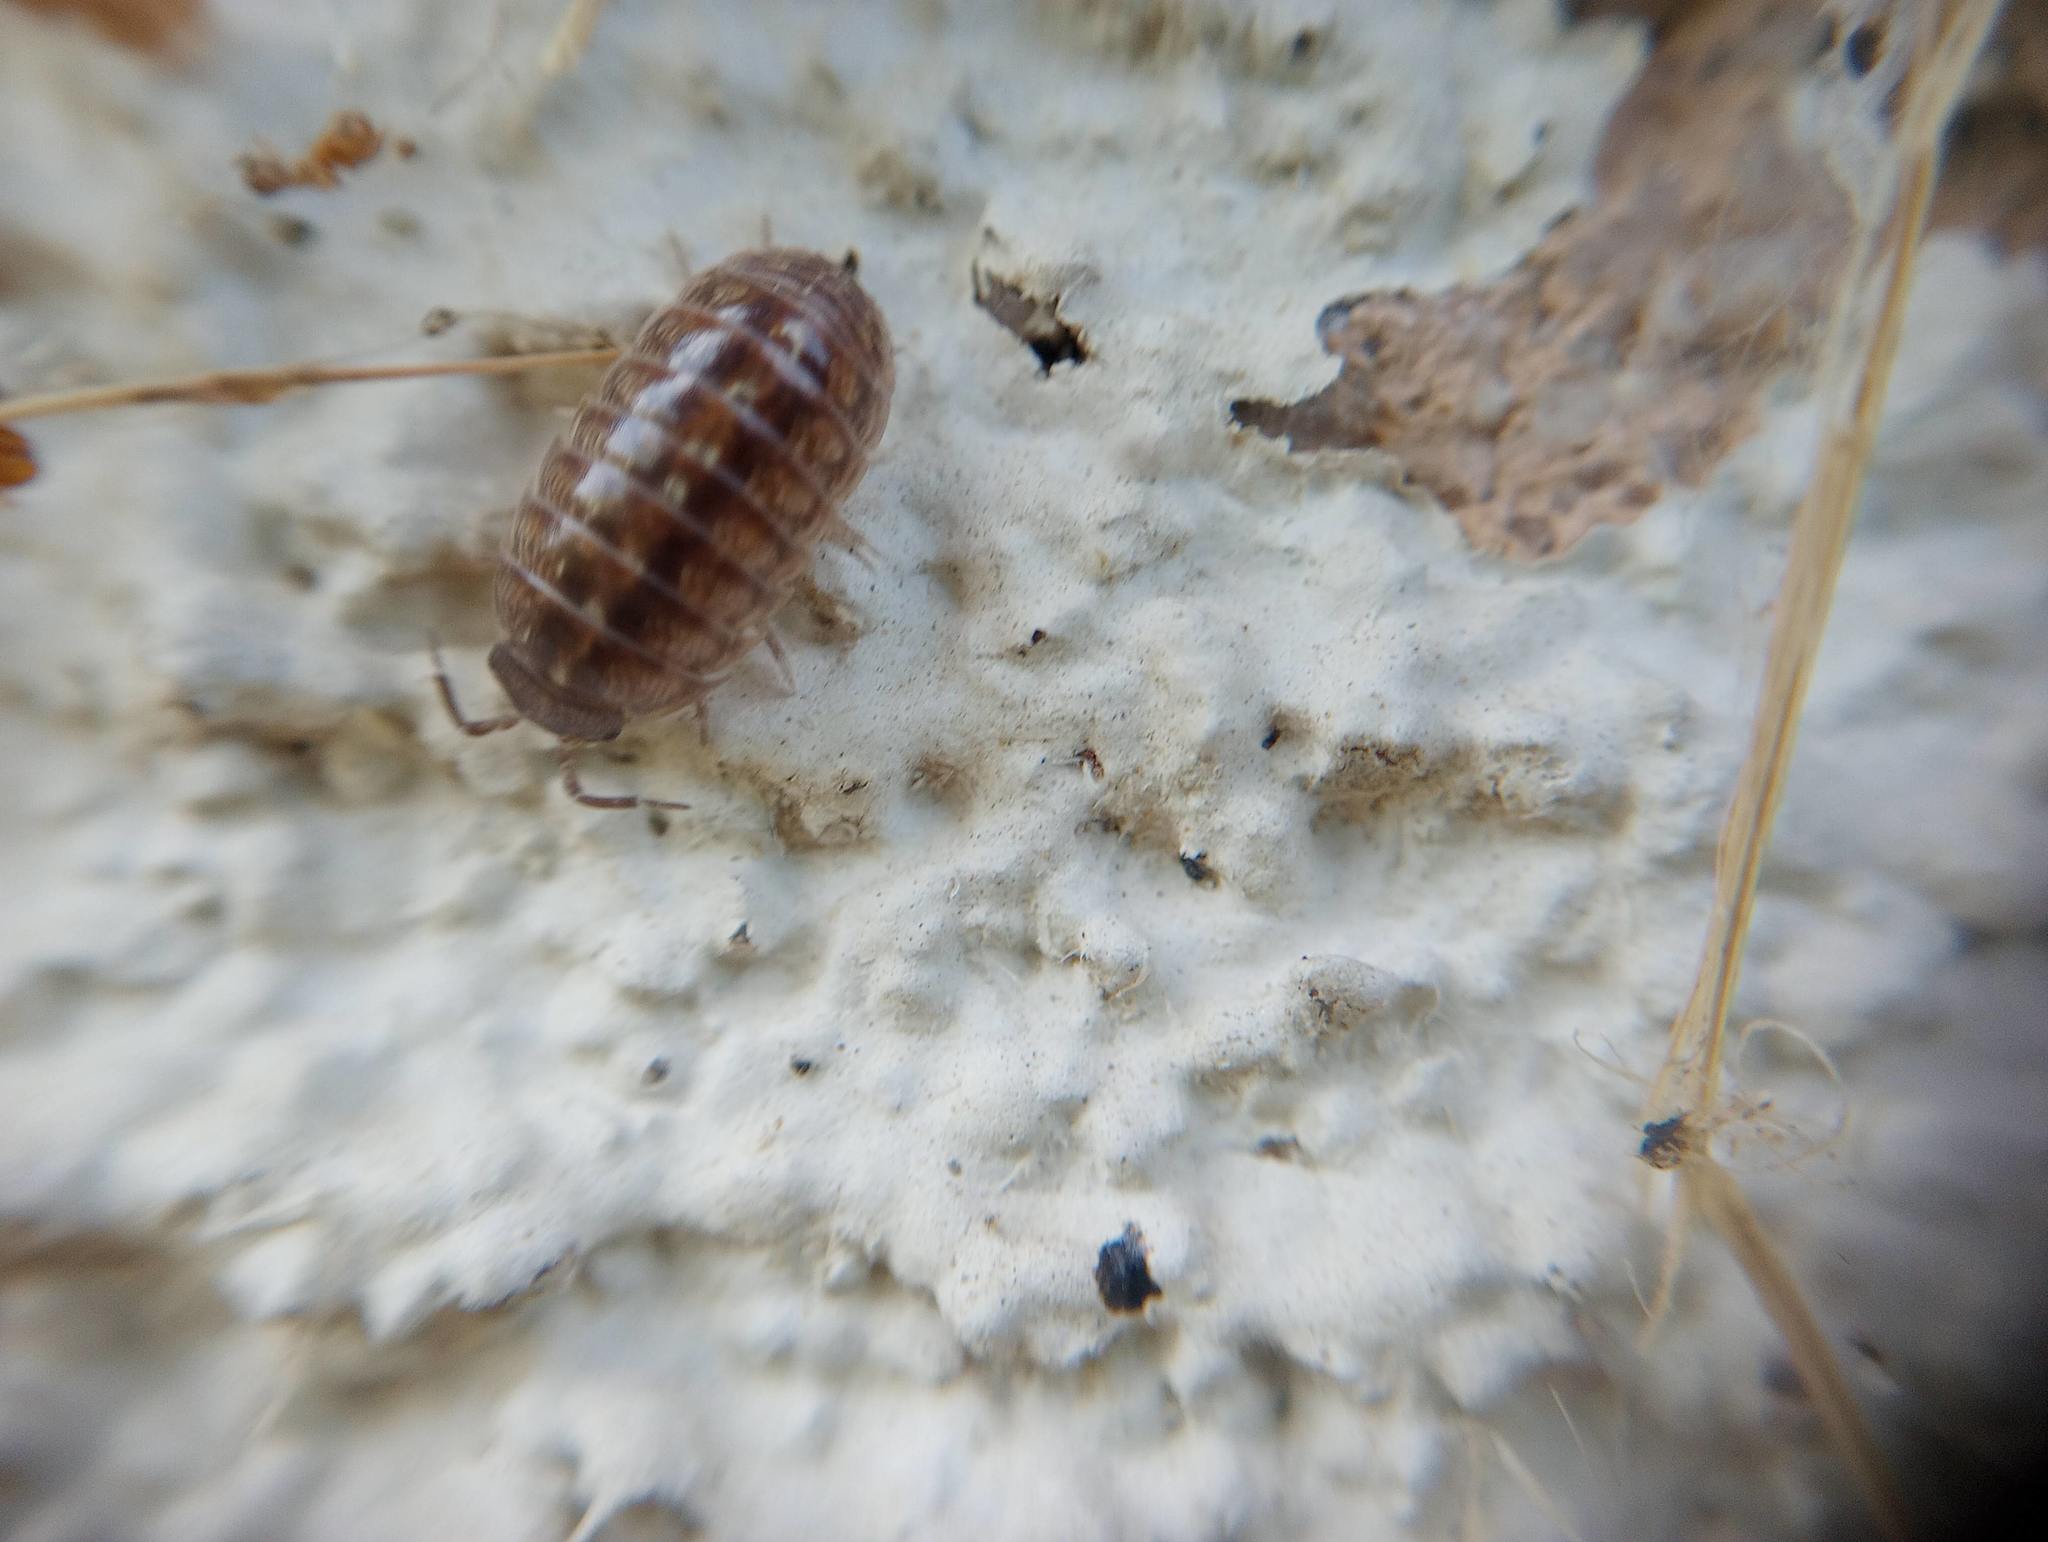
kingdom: Animalia
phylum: Arthropoda
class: Malacostraca
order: Isopoda
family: Armadillidiidae
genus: Armadillidium
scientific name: Armadillidium vulgare
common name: Common pill woodlouse
